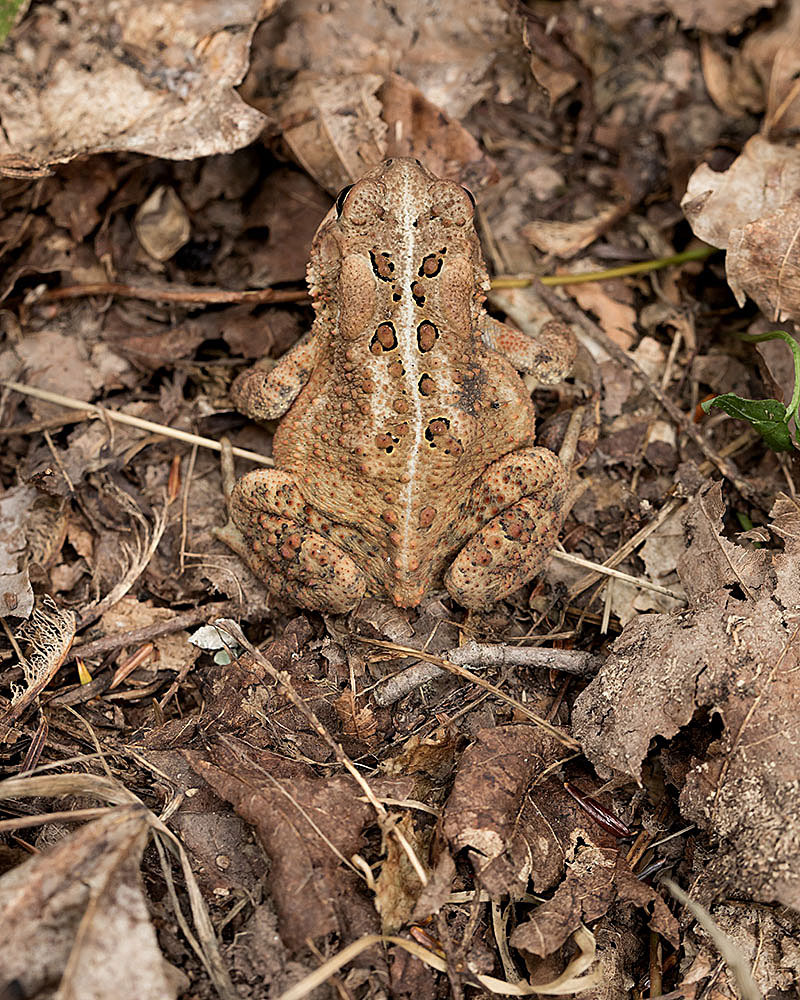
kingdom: Animalia
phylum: Chordata
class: Amphibia
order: Anura
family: Bufonidae
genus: Anaxyrus
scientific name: Anaxyrus americanus
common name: American toad
